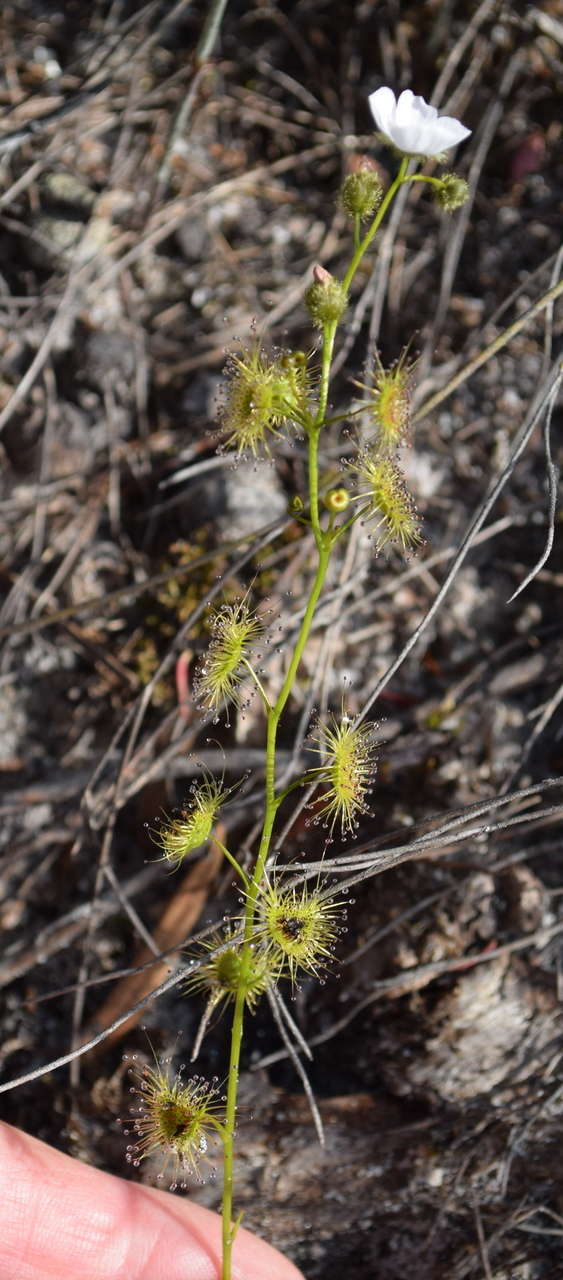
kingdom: Plantae
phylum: Tracheophyta
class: Magnoliopsida
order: Caryophyllales
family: Droseraceae
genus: Drosera
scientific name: Drosera gunniana
